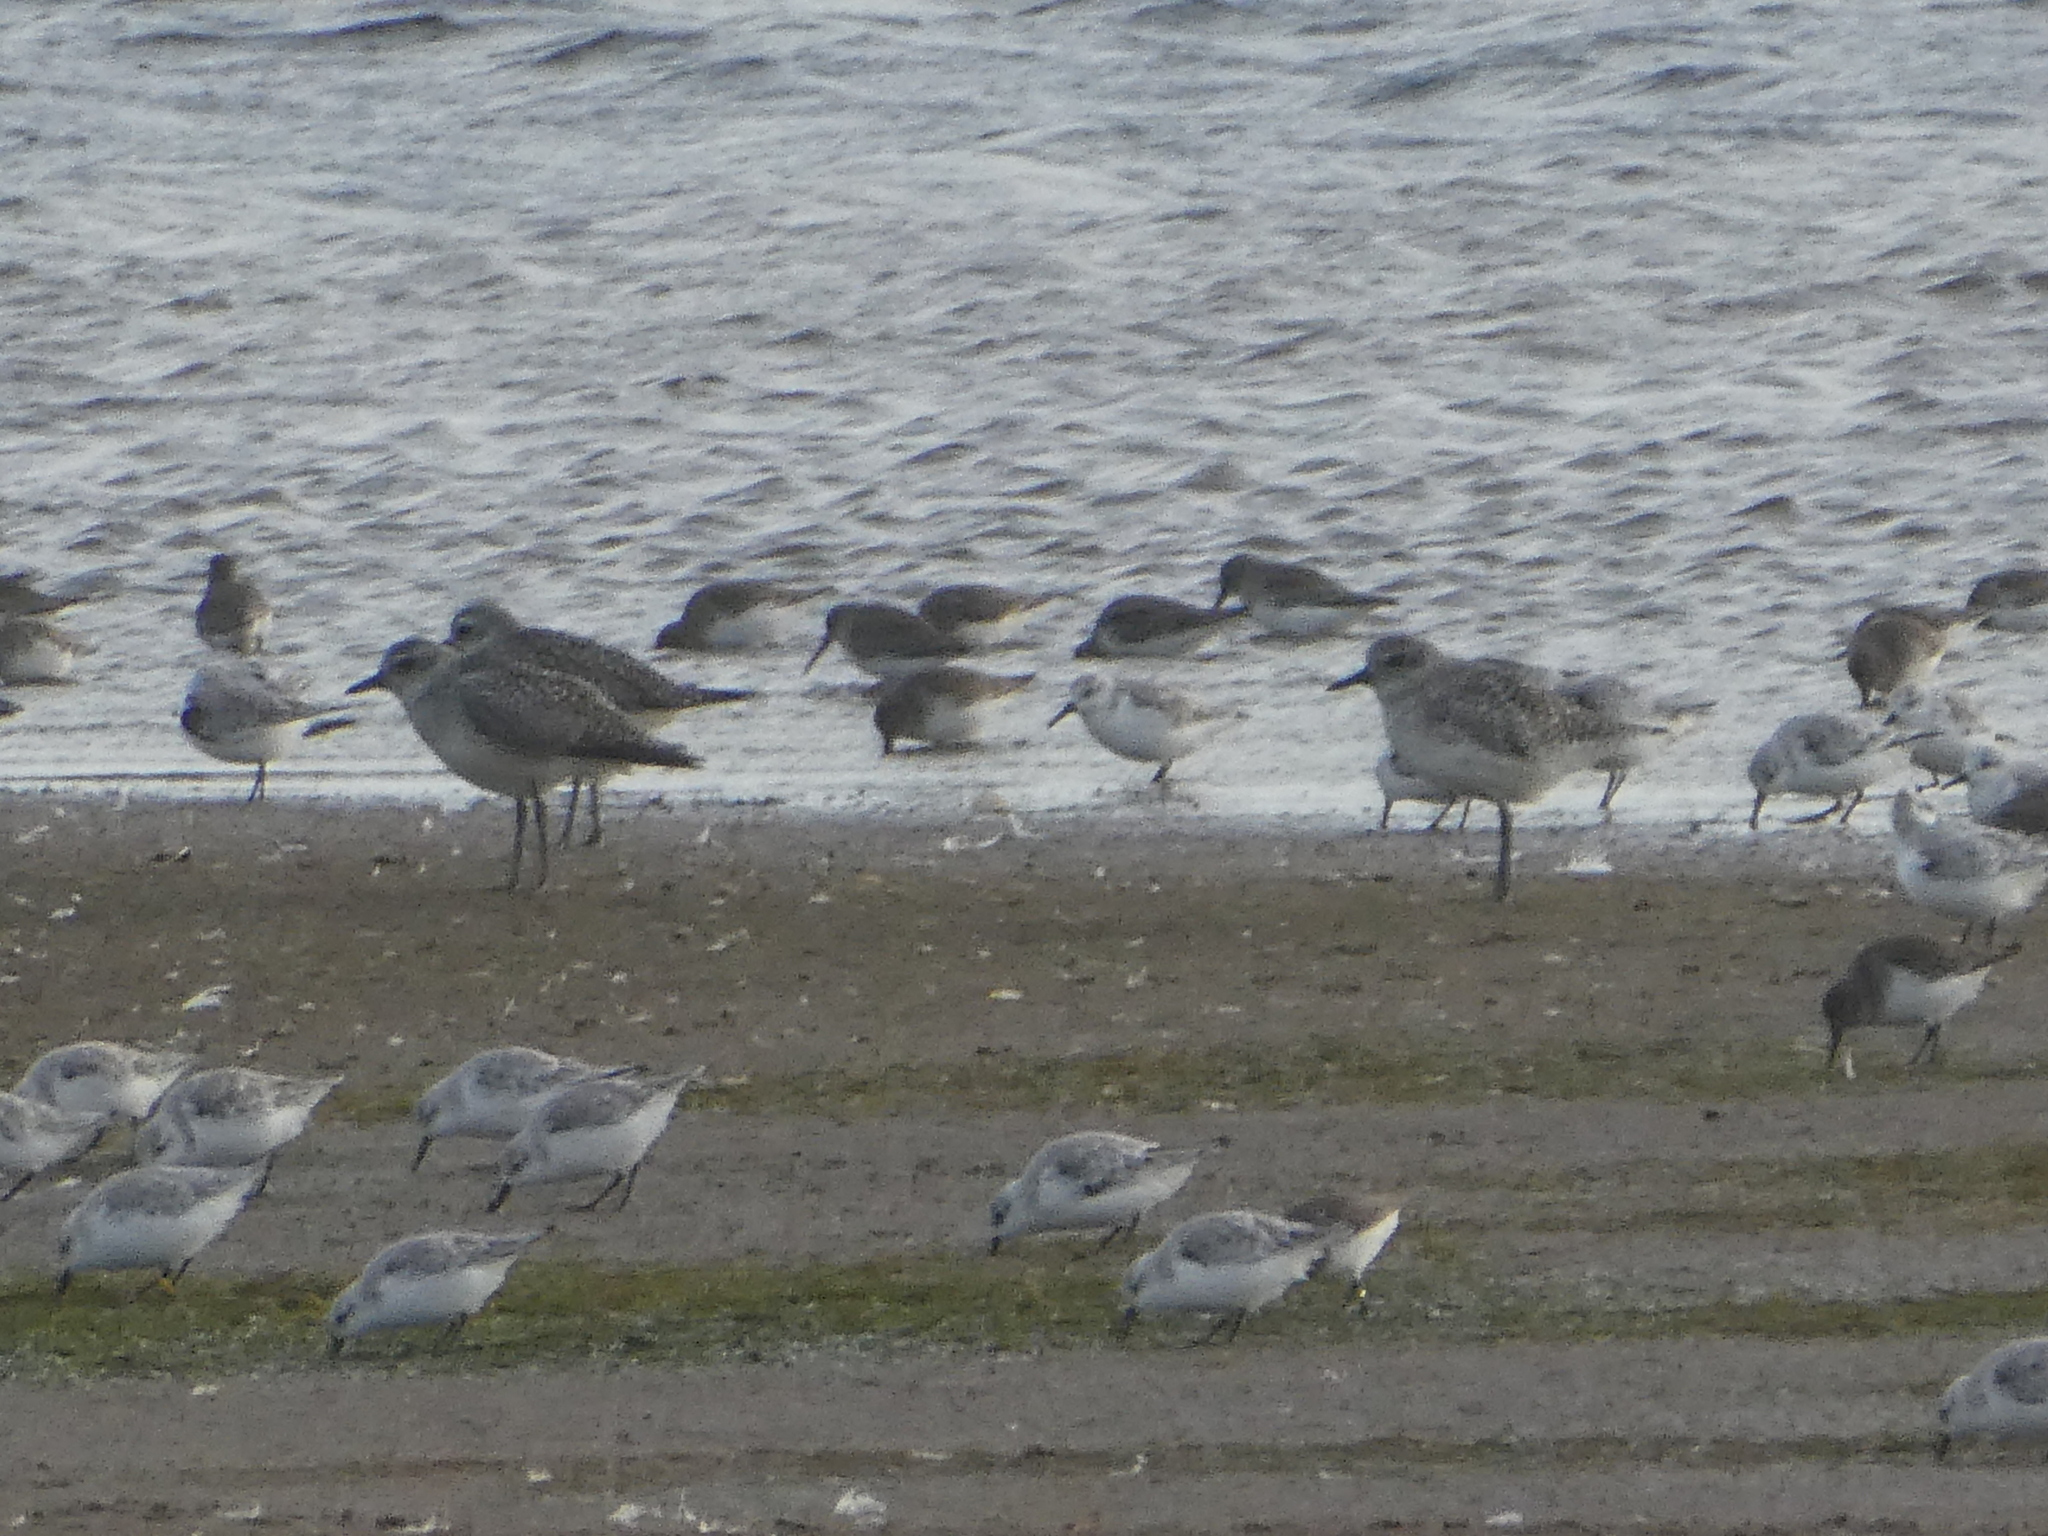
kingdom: Animalia
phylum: Chordata
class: Aves
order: Charadriiformes
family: Charadriidae
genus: Pluvialis
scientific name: Pluvialis squatarola
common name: Grey plover
